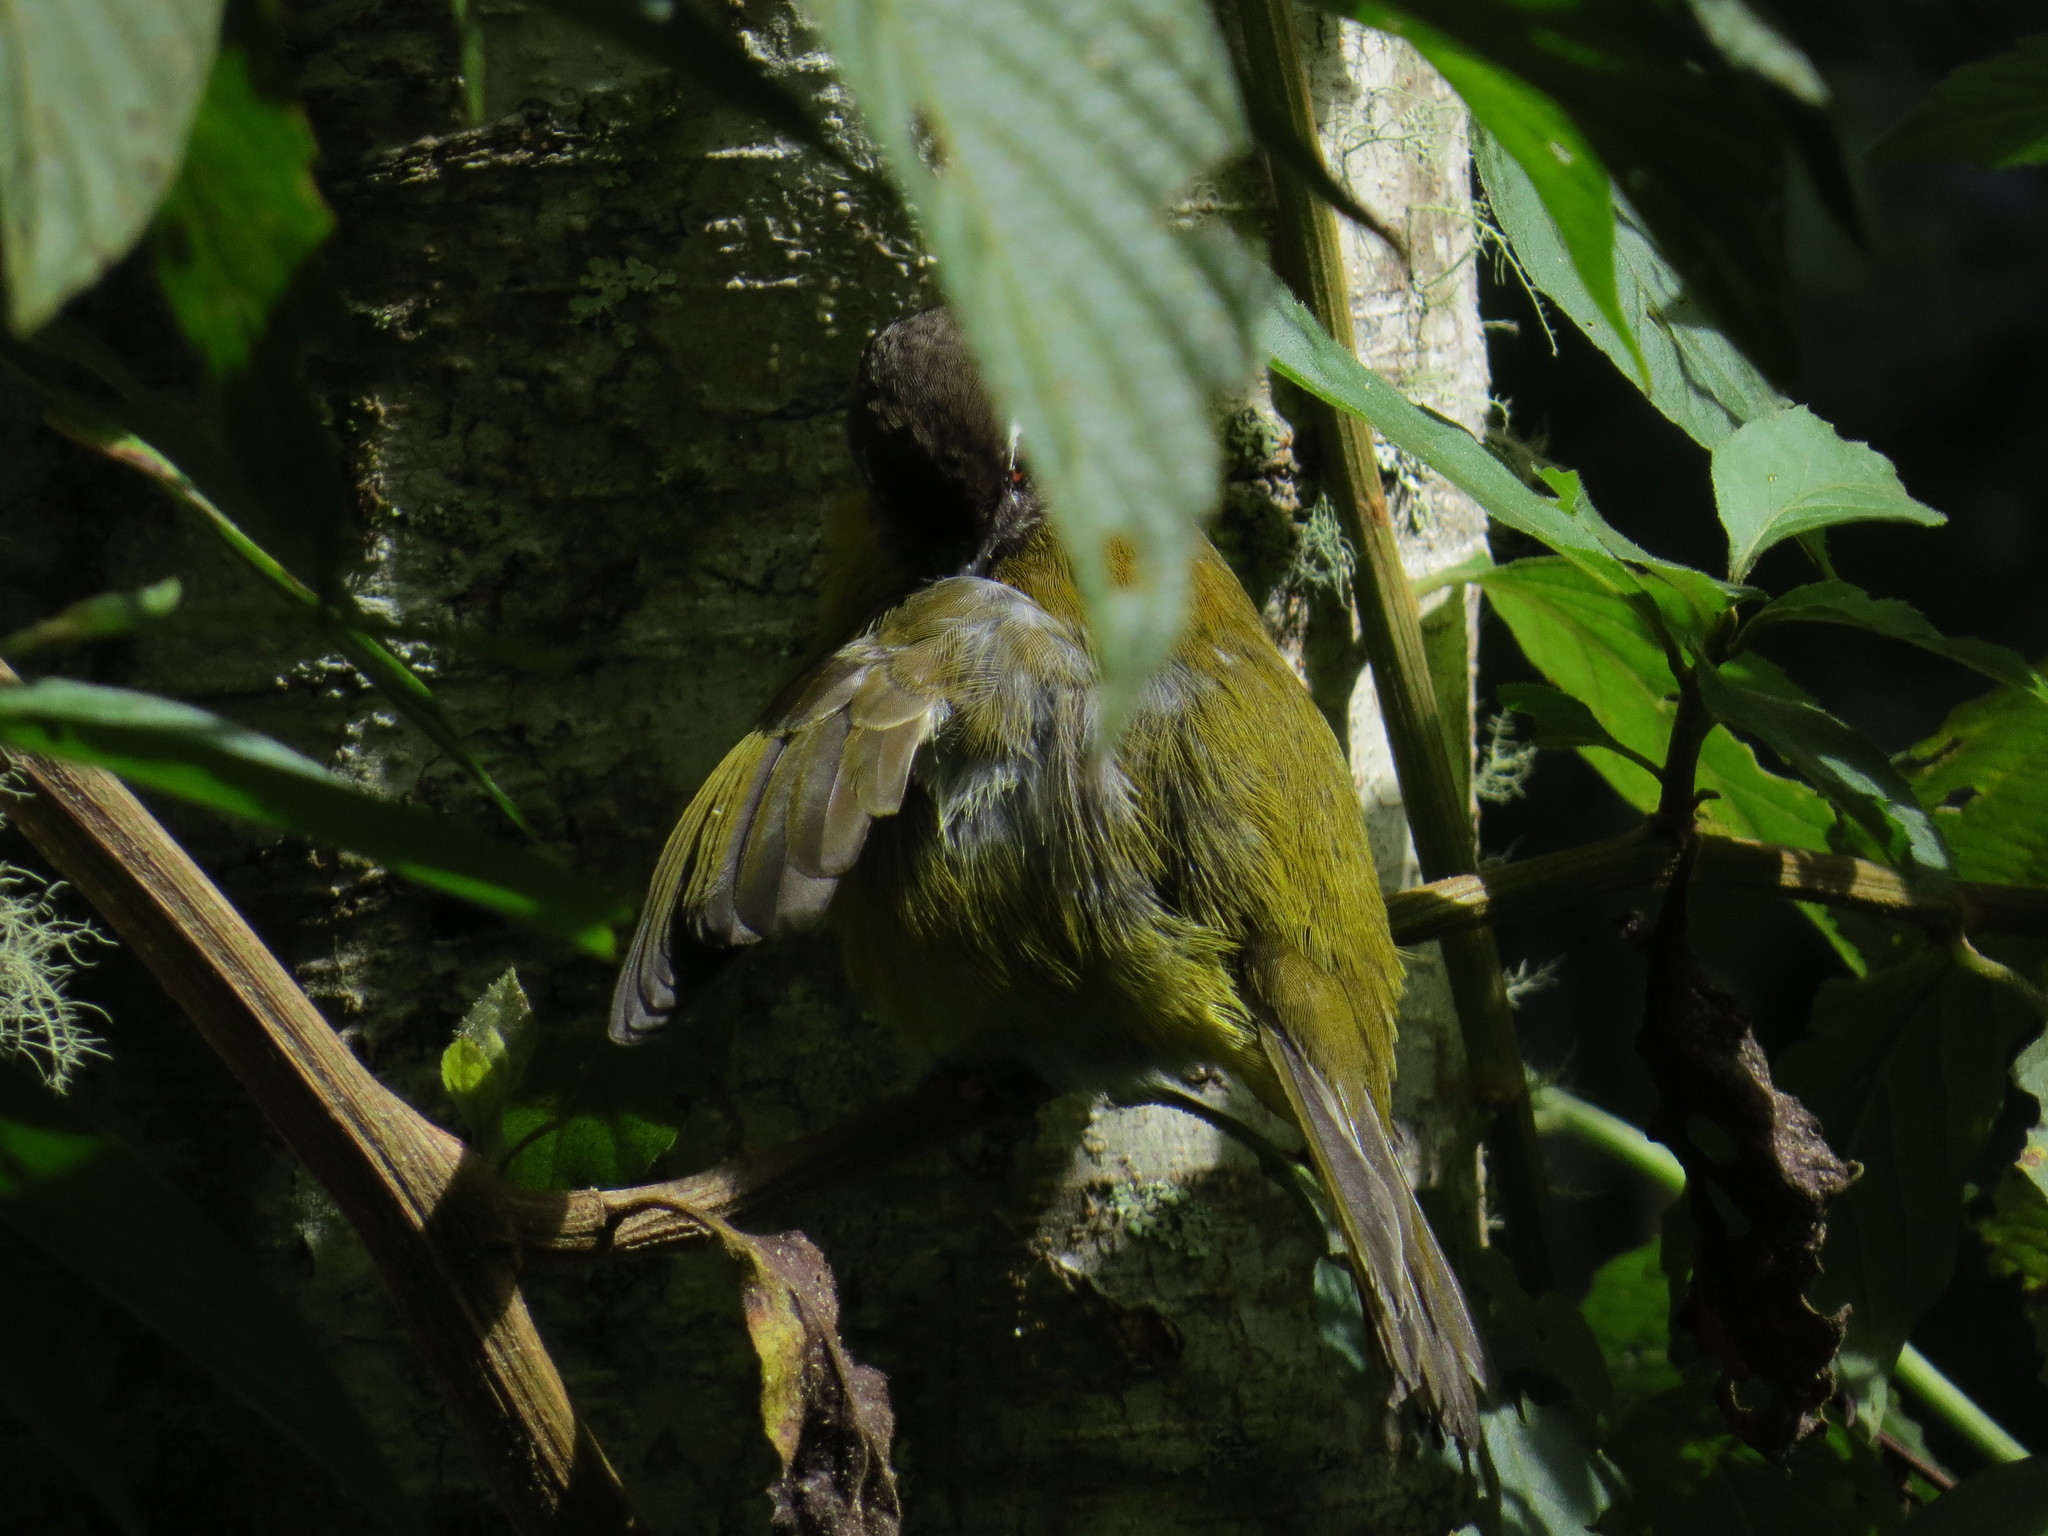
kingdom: Animalia
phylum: Chordata
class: Aves
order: Passeriformes
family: Passerellidae
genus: Chlorospingus
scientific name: Chlorospingus flavopectus
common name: Common chlorospingus
